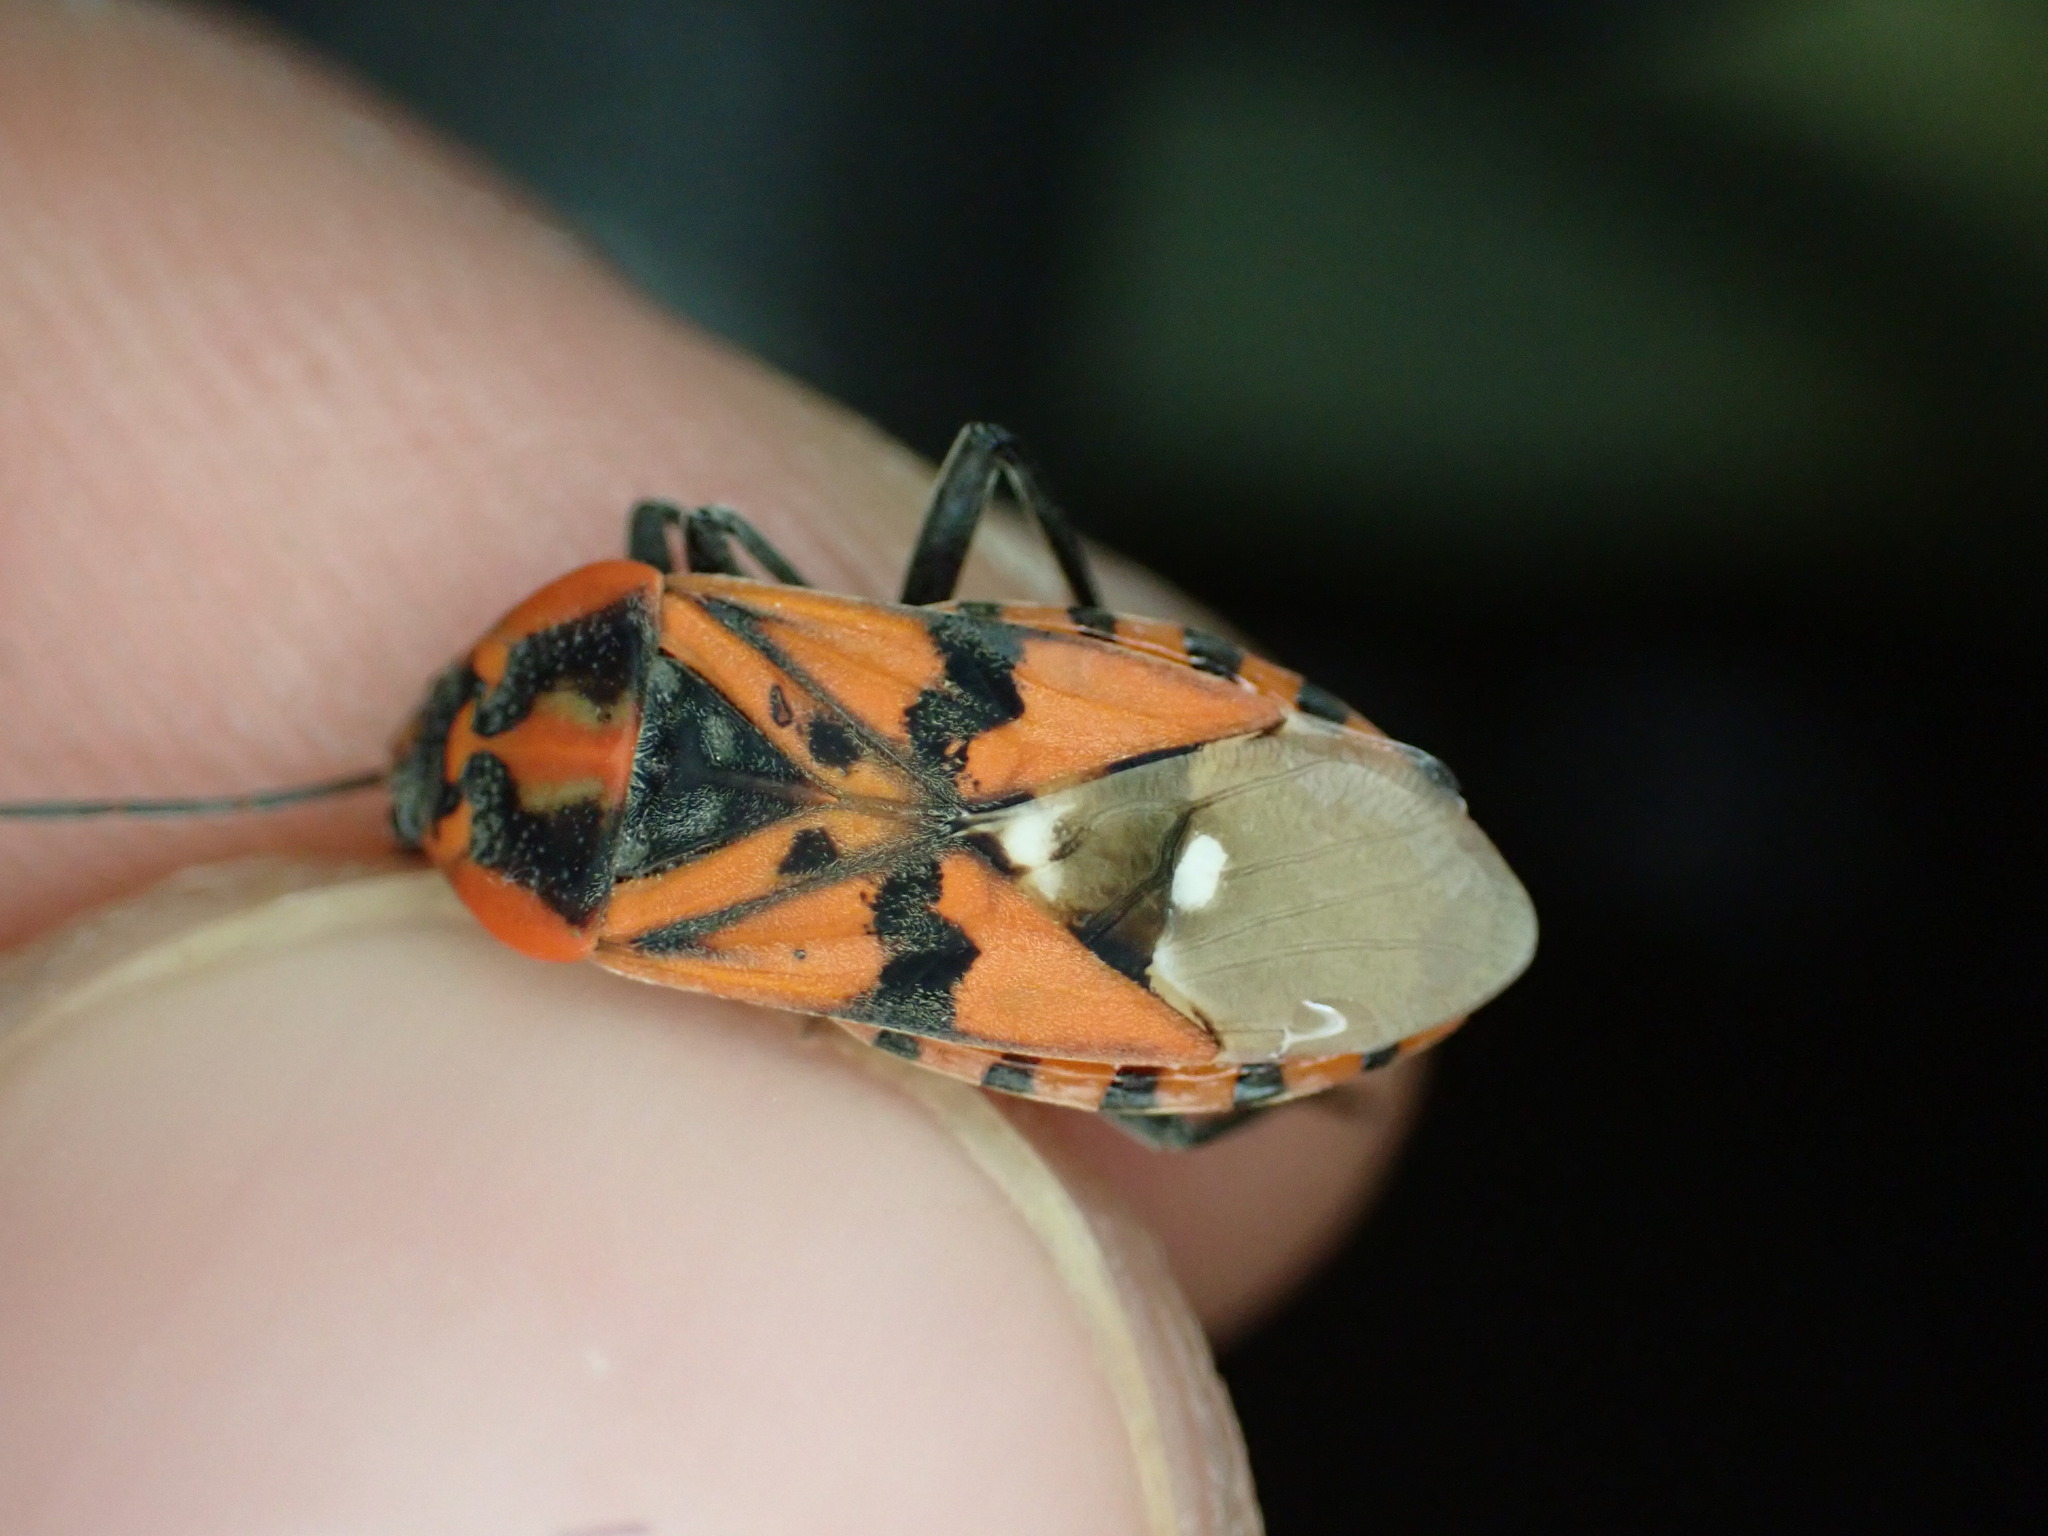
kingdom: Animalia
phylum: Arthropoda
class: Insecta
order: Hemiptera
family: Lygaeidae
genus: Spilostethus
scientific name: Spilostethus pandurus
